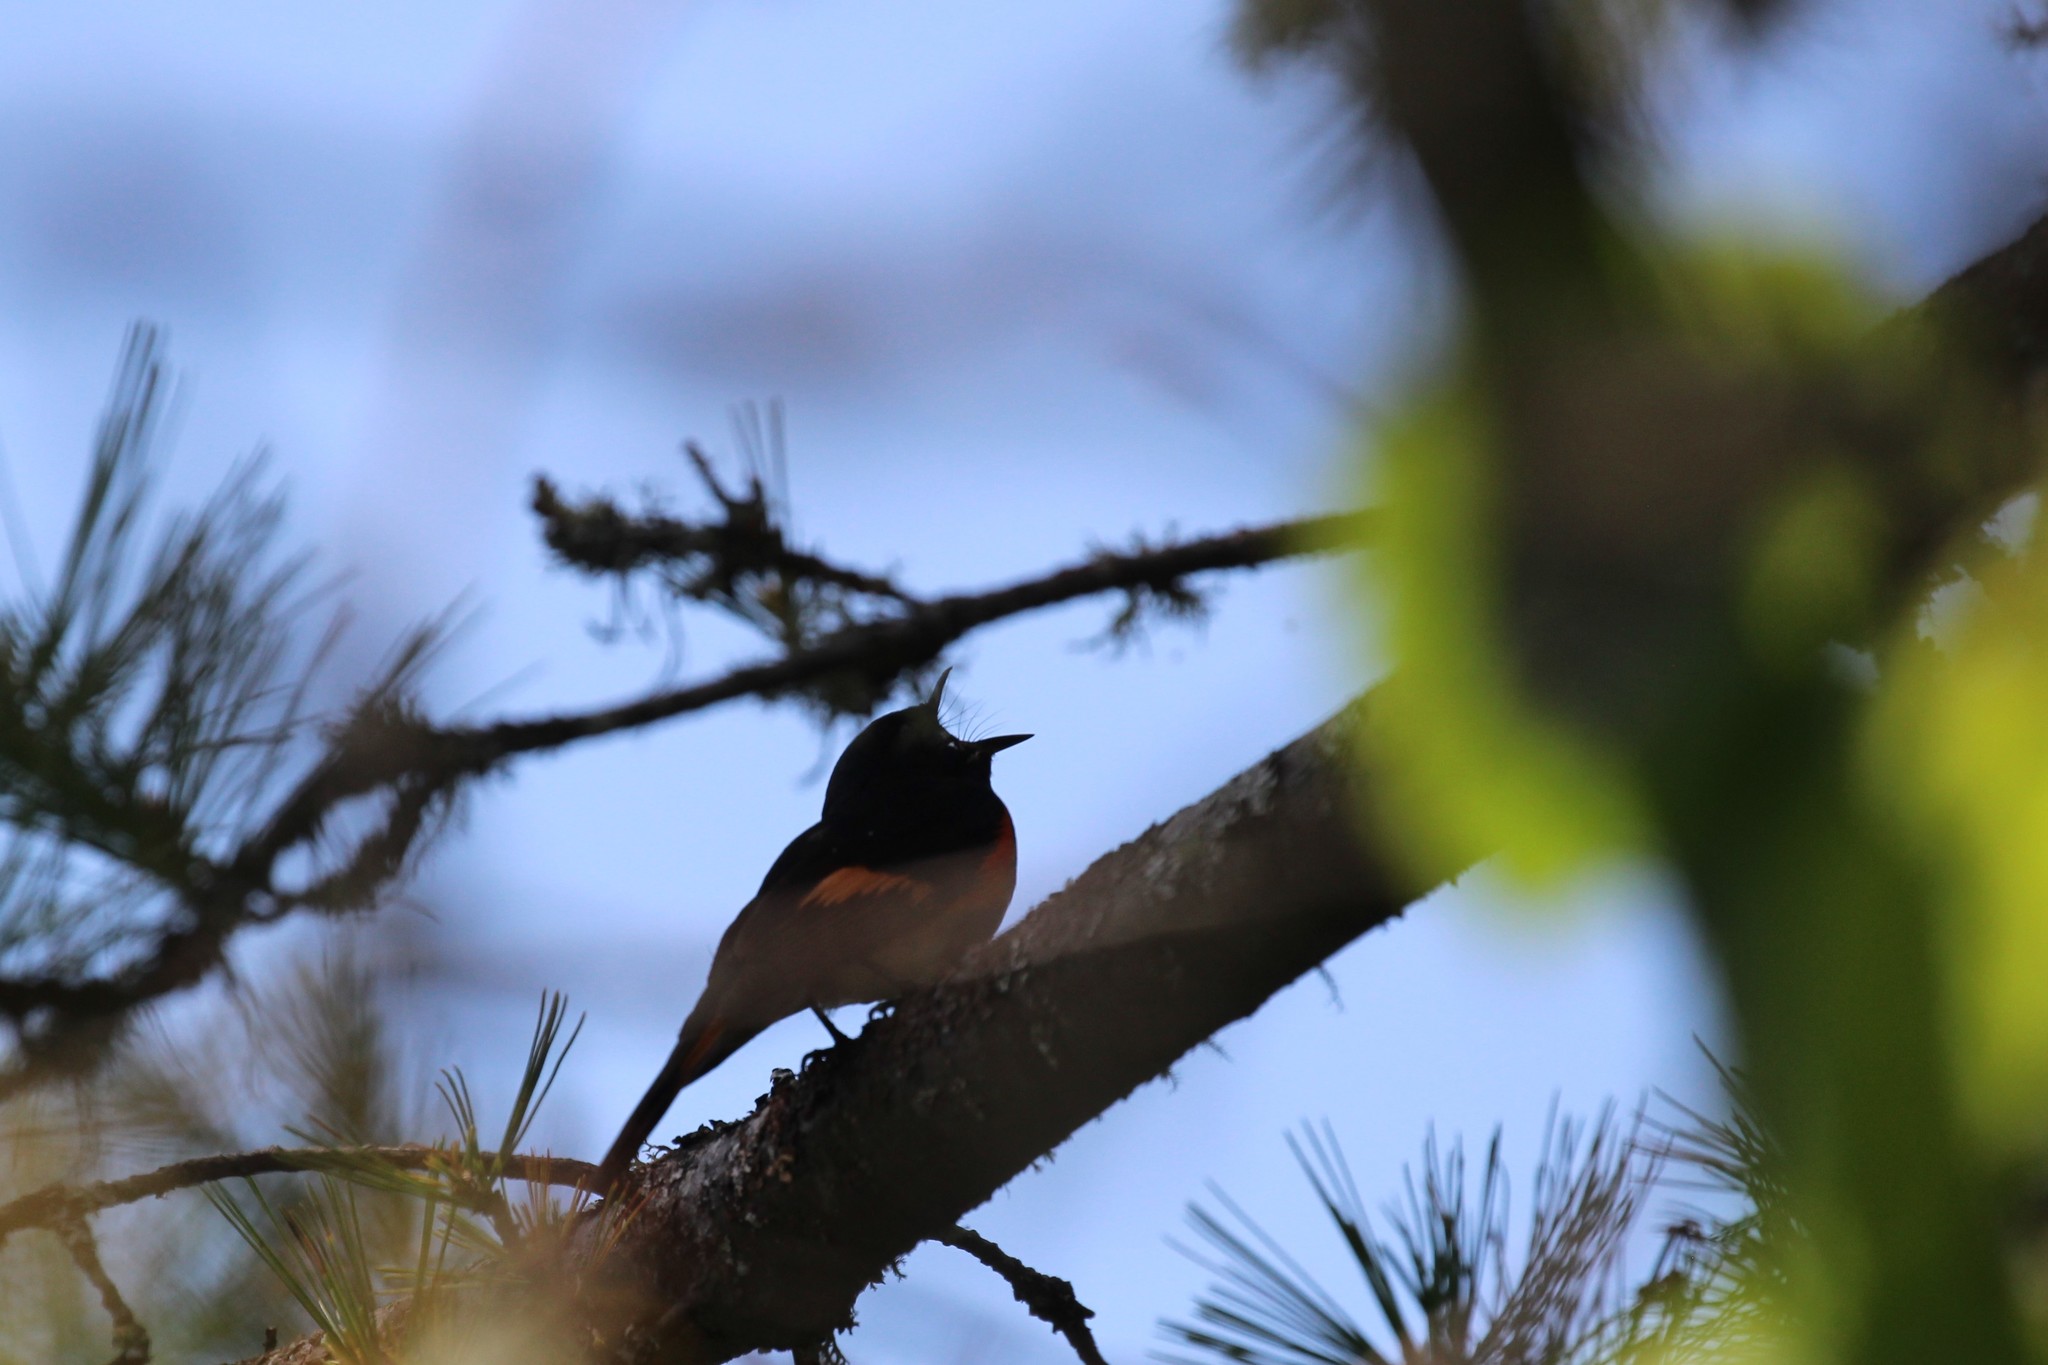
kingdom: Animalia
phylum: Chordata
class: Aves
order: Passeriformes
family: Parulidae
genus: Setophaga
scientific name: Setophaga ruticilla
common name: American redstart
